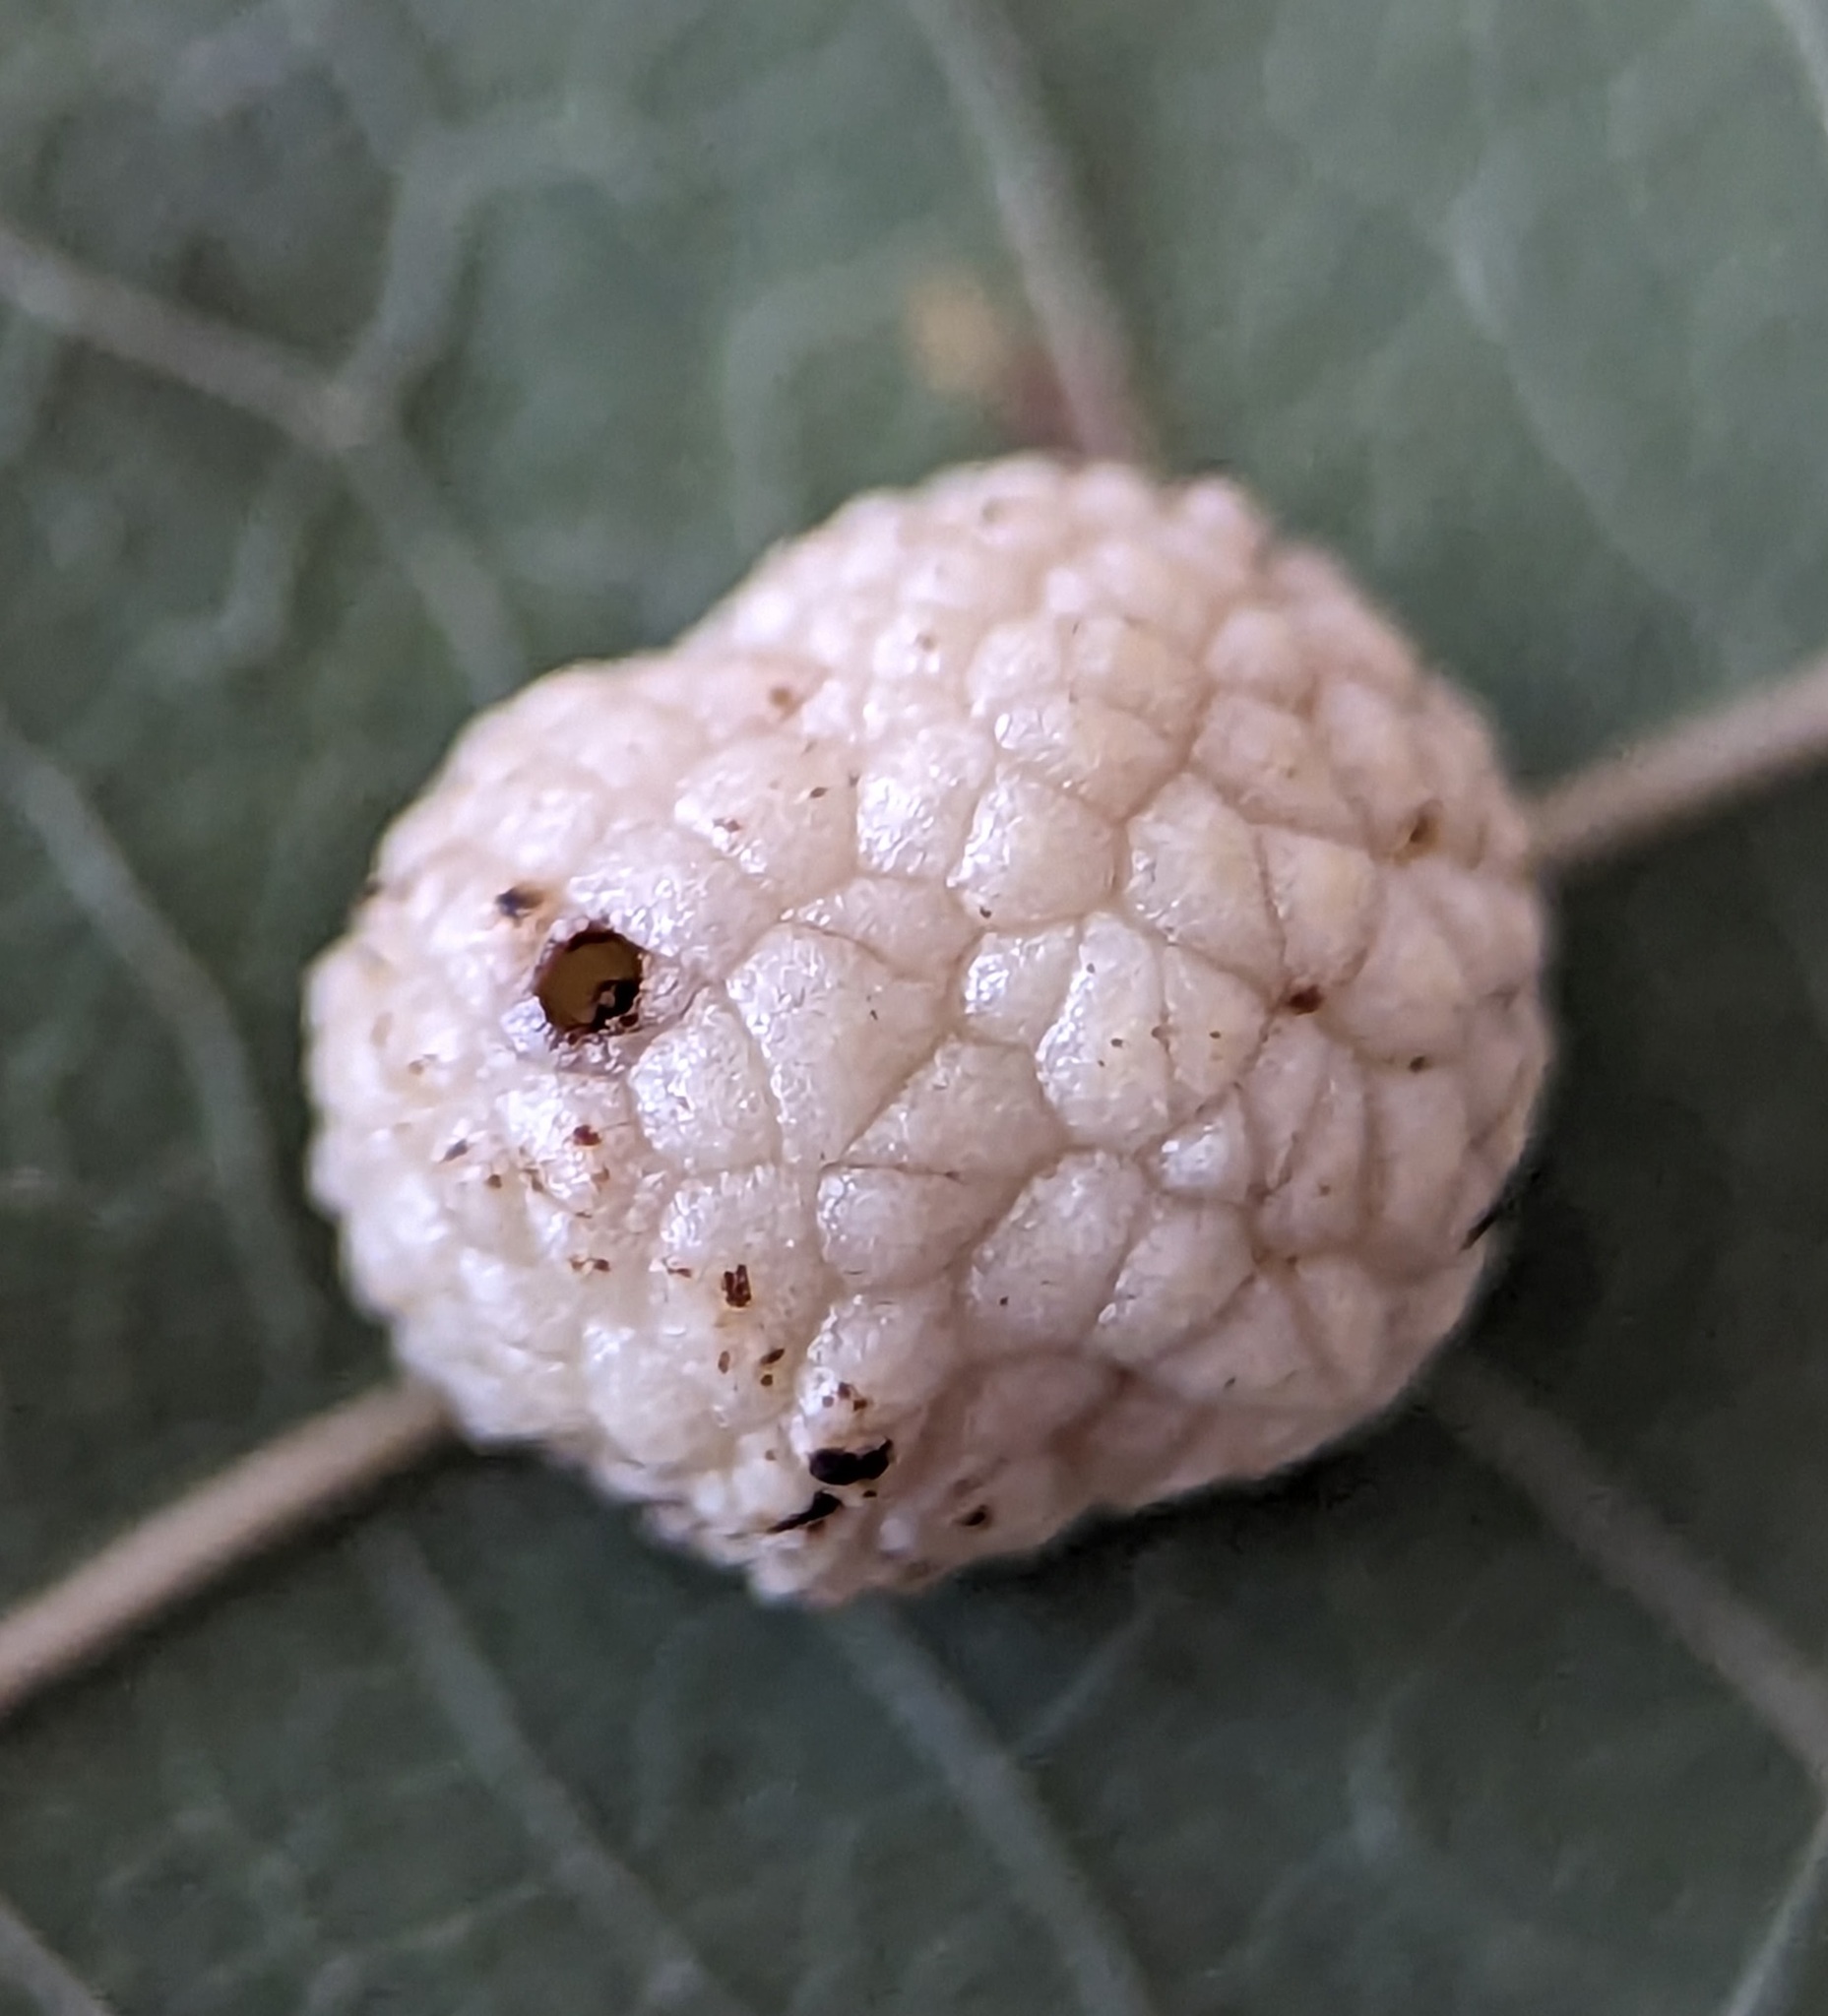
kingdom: Animalia
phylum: Arthropoda
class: Insecta
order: Hymenoptera
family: Cynipidae
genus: Acraspis
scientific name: Acraspis
